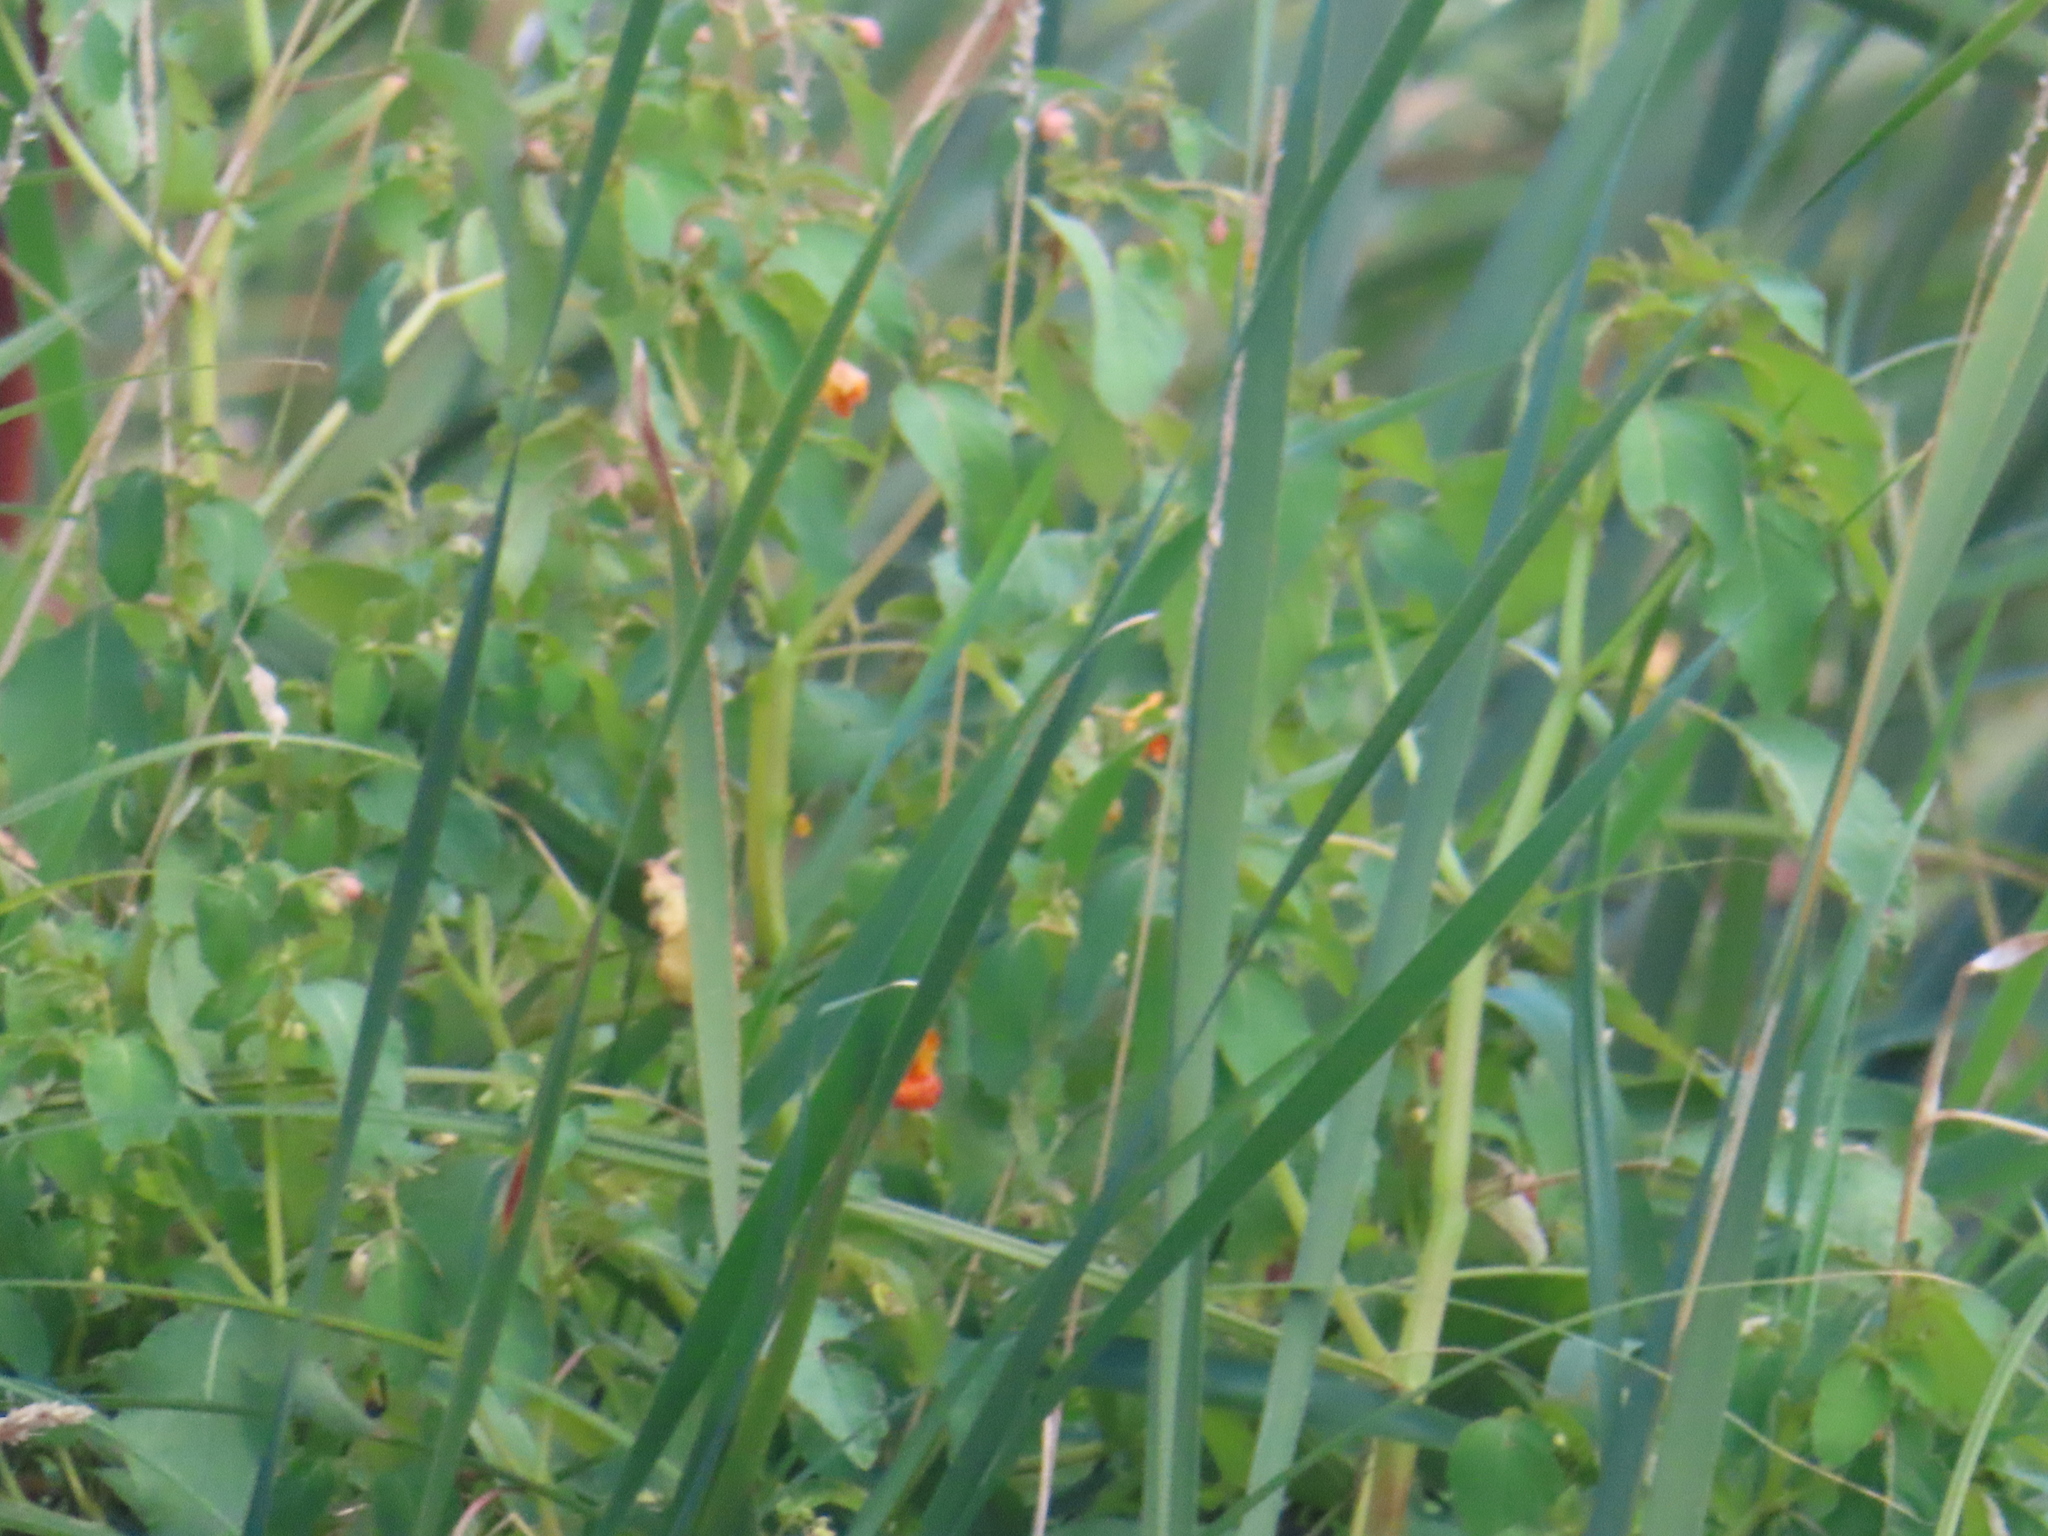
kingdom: Plantae
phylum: Tracheophyta
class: Magnoliopsida
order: Ericales
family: Balsaminaceae
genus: Impatiens
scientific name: Impatiens capensis
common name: Orange balsam
